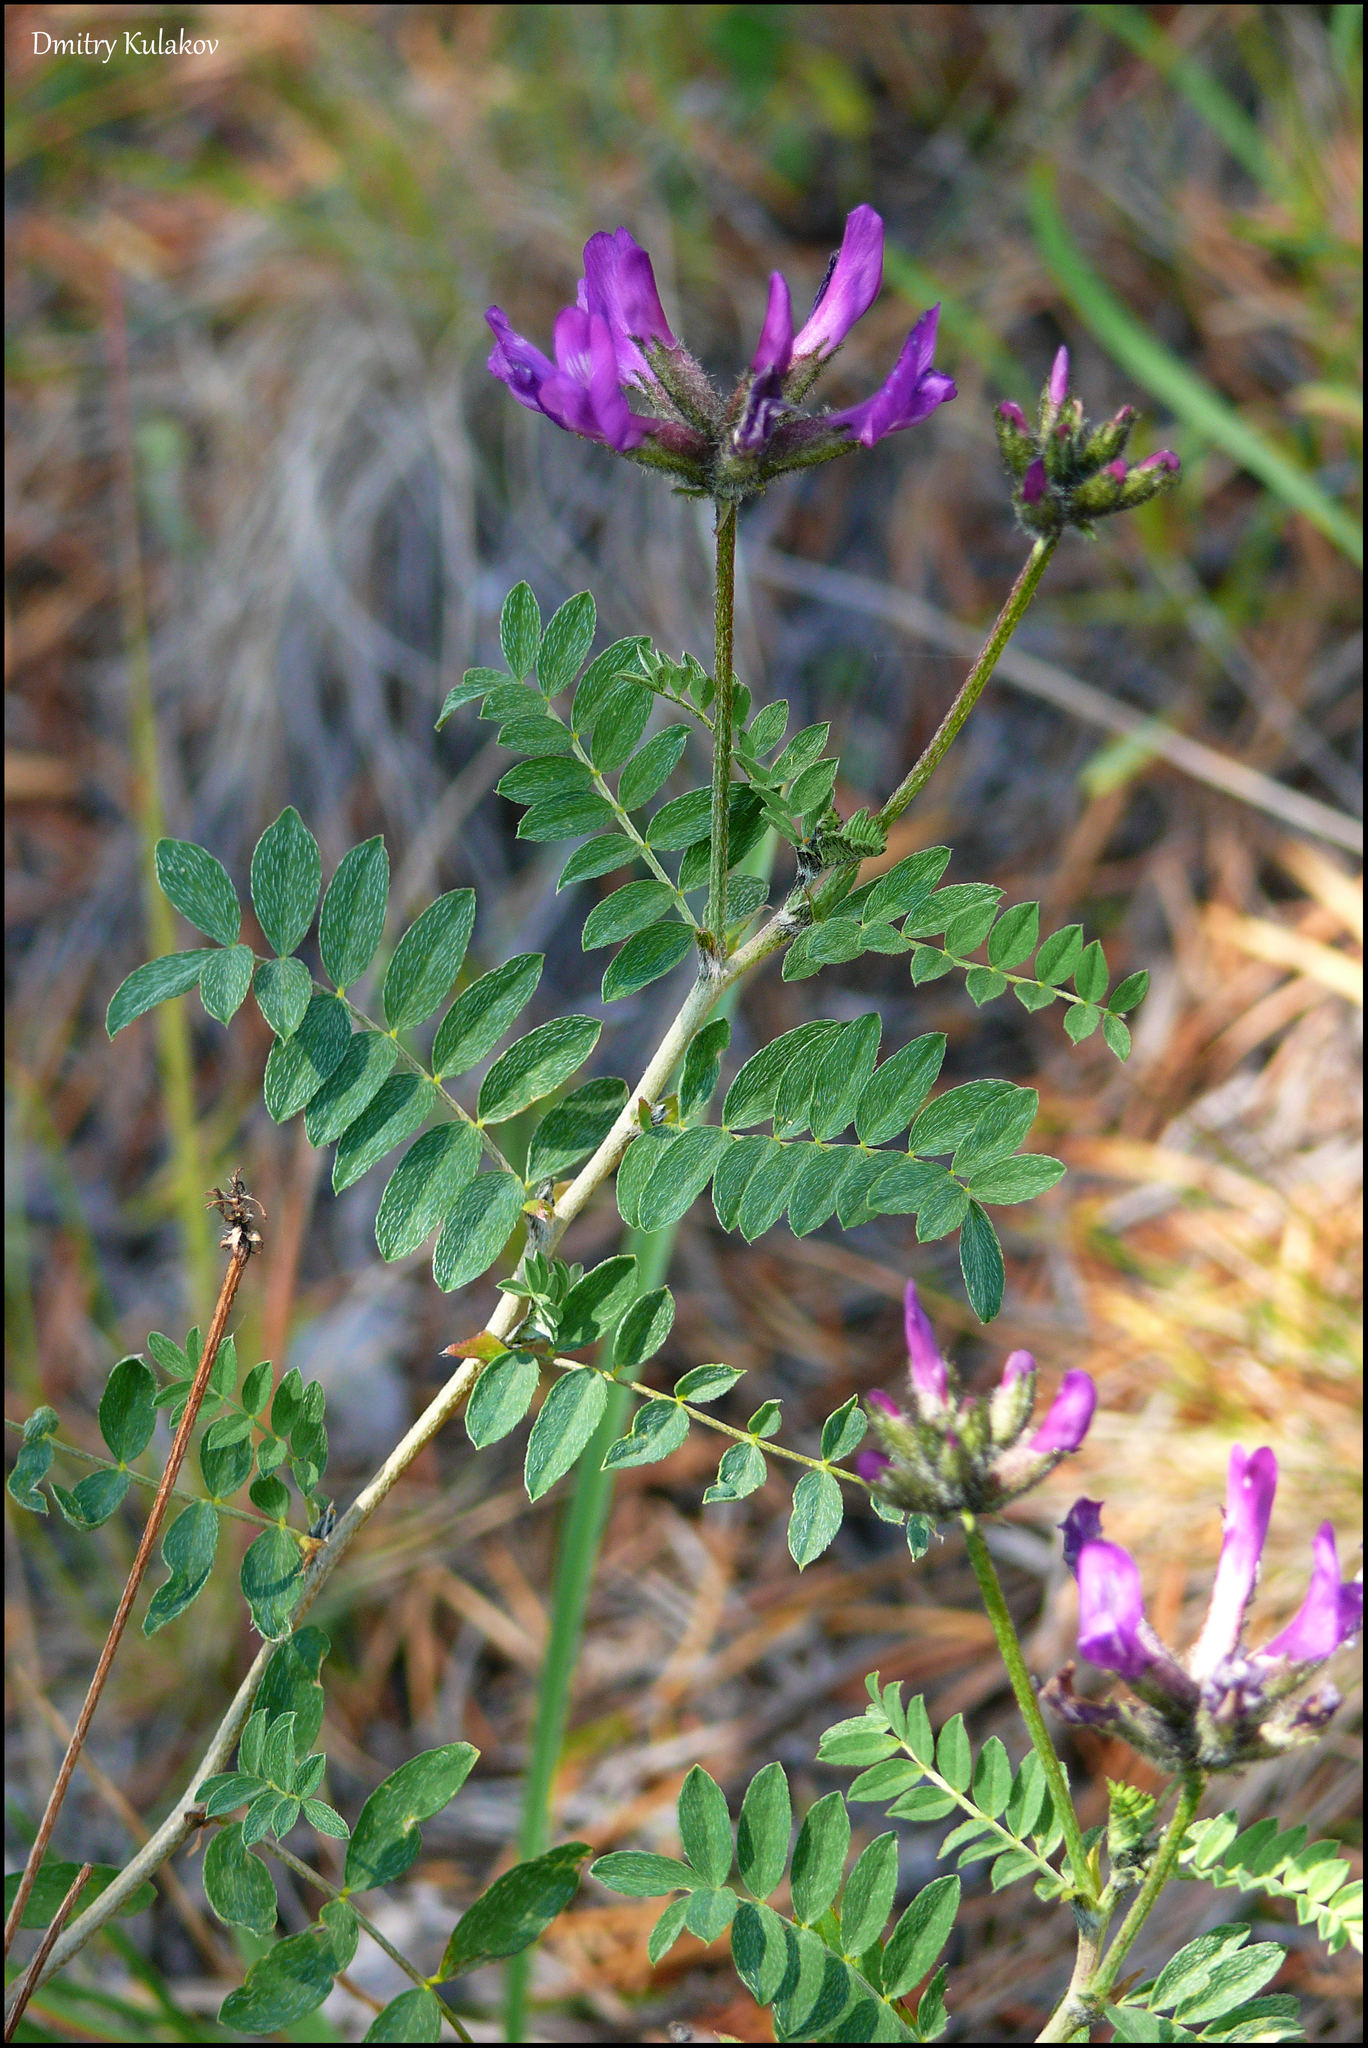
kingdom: Plantae
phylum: Tracheophyta
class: Magnoliopsida
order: Fabales
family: Fabaceae
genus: Astragalus
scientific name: Astragalus syriacus
